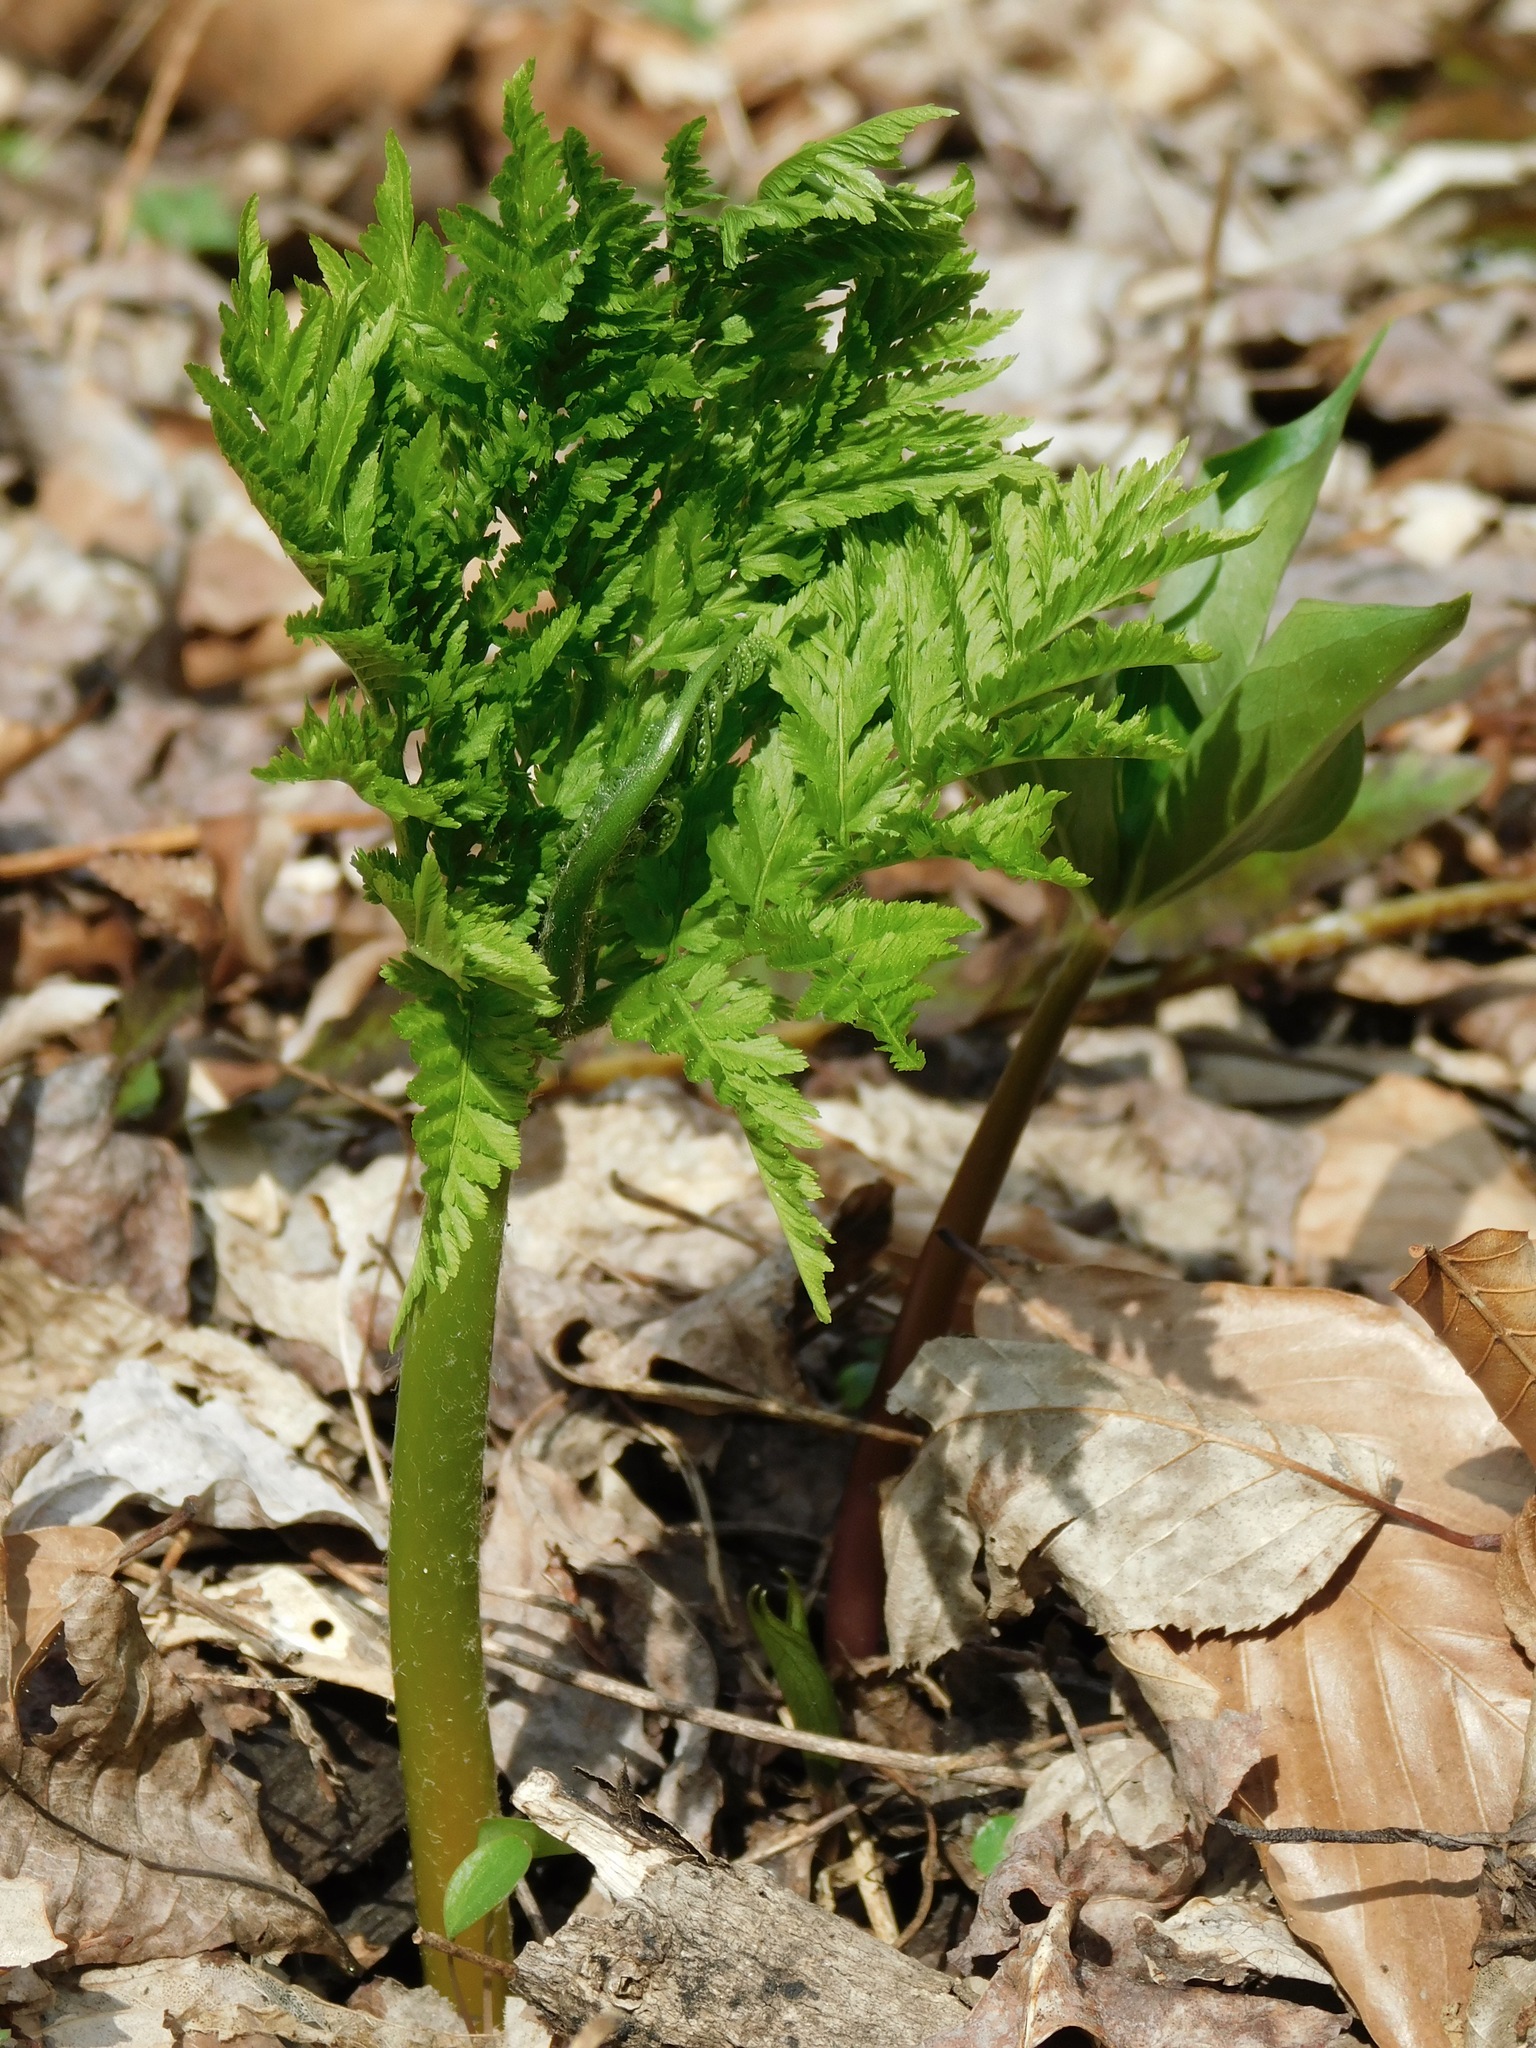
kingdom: Plantae
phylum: Tracheophyta
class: Polypodiopsida
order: Ophioglossales
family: Ophioglossaceae
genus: Botrypus
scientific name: Botrypus virginianus
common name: Common grapefern
